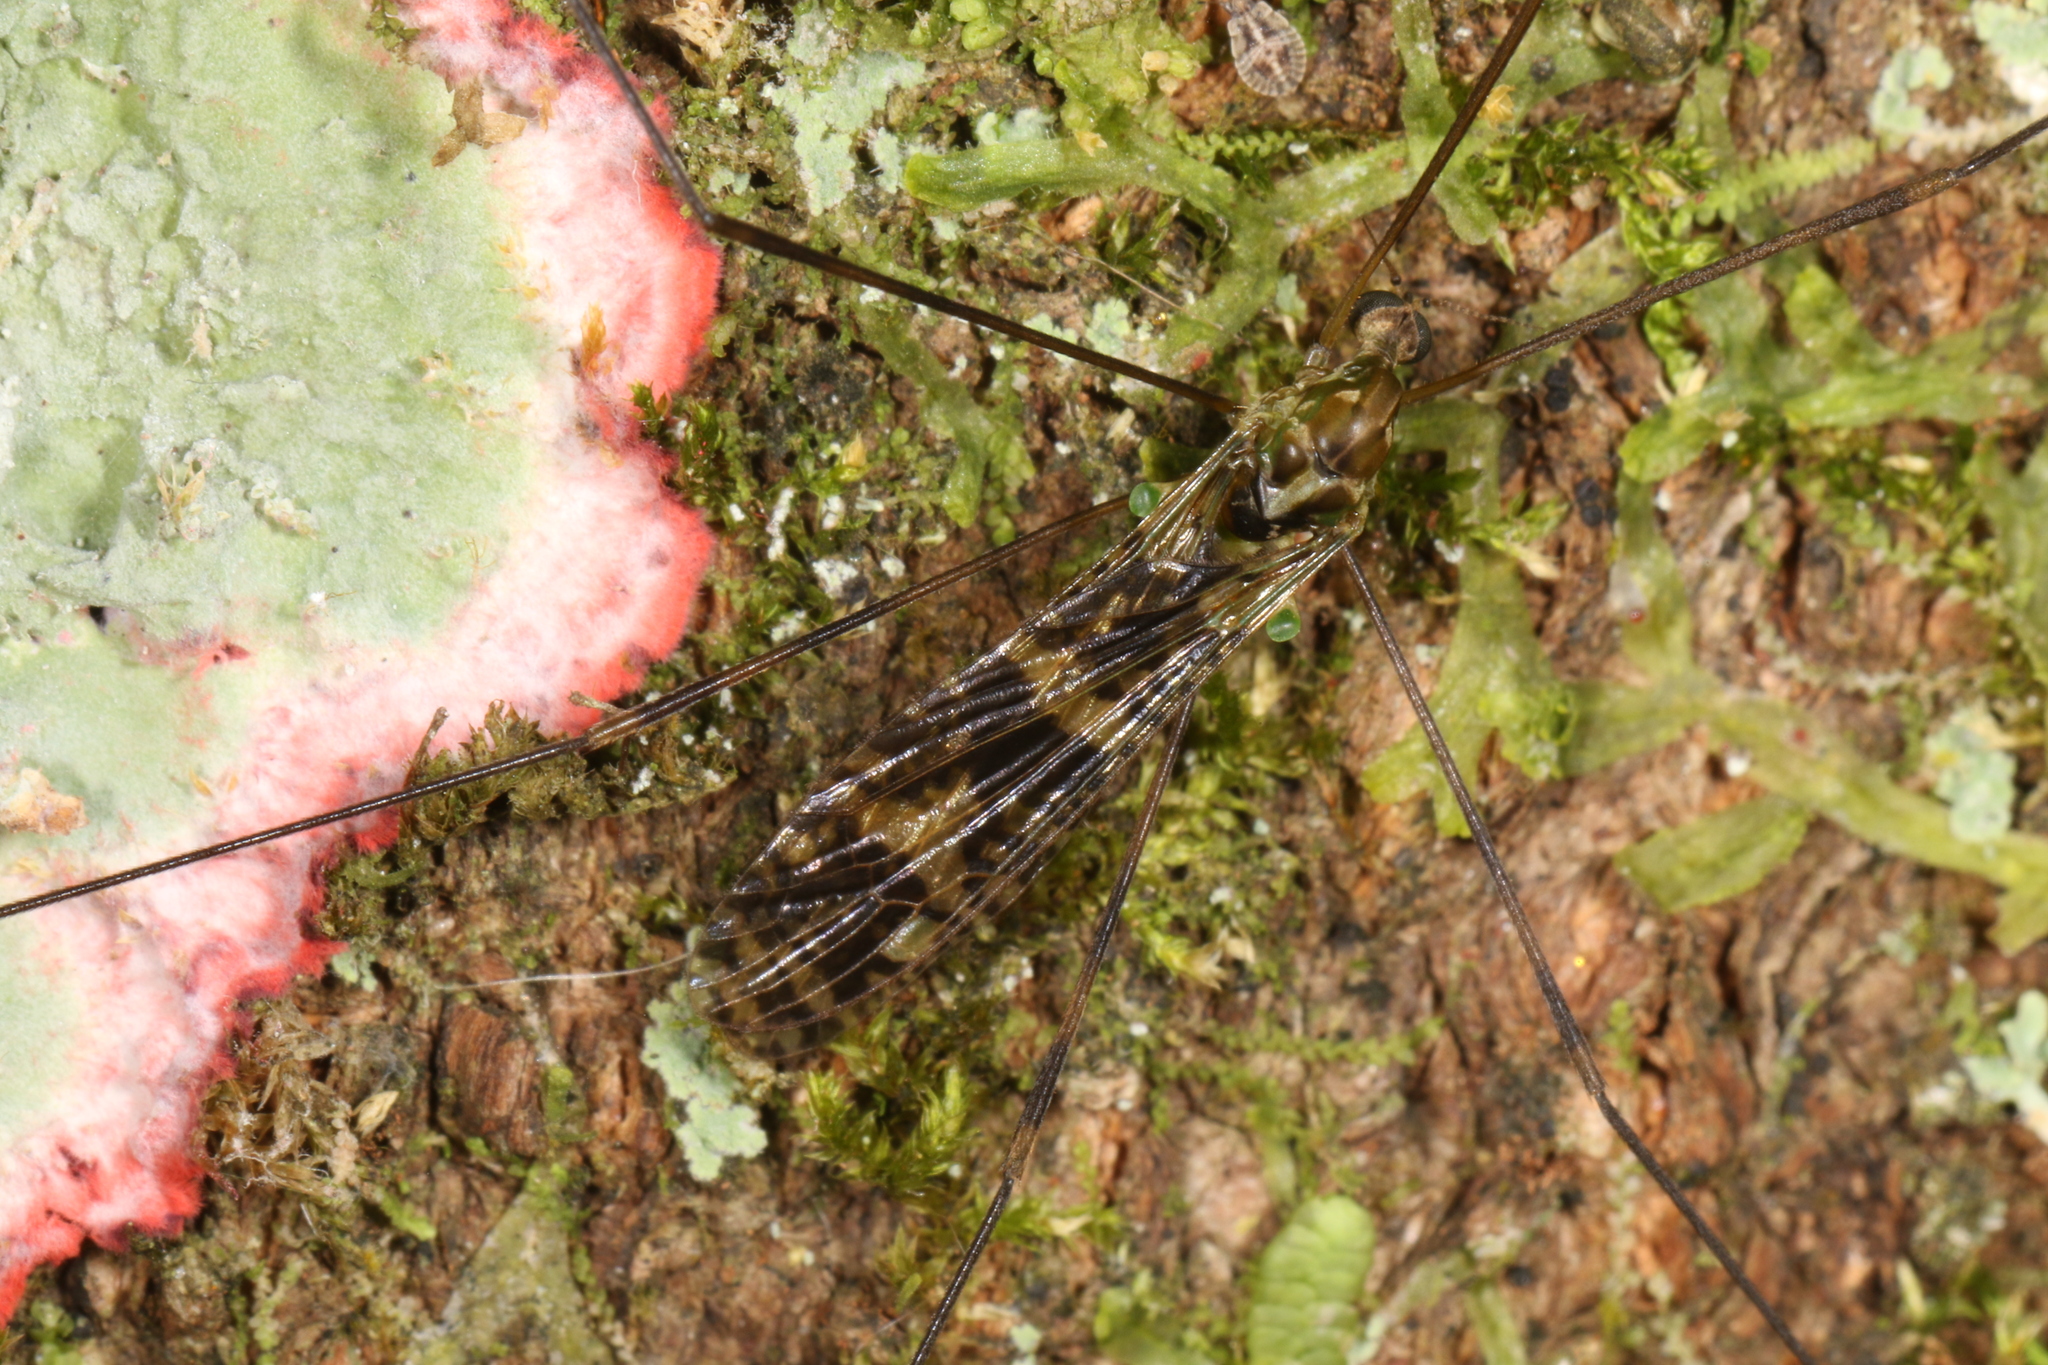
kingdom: Animalia
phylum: Arthropoda
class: Insecta
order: Diptera
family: Limoniidae
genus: Dicranomyia
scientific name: Dicranomyia diva
